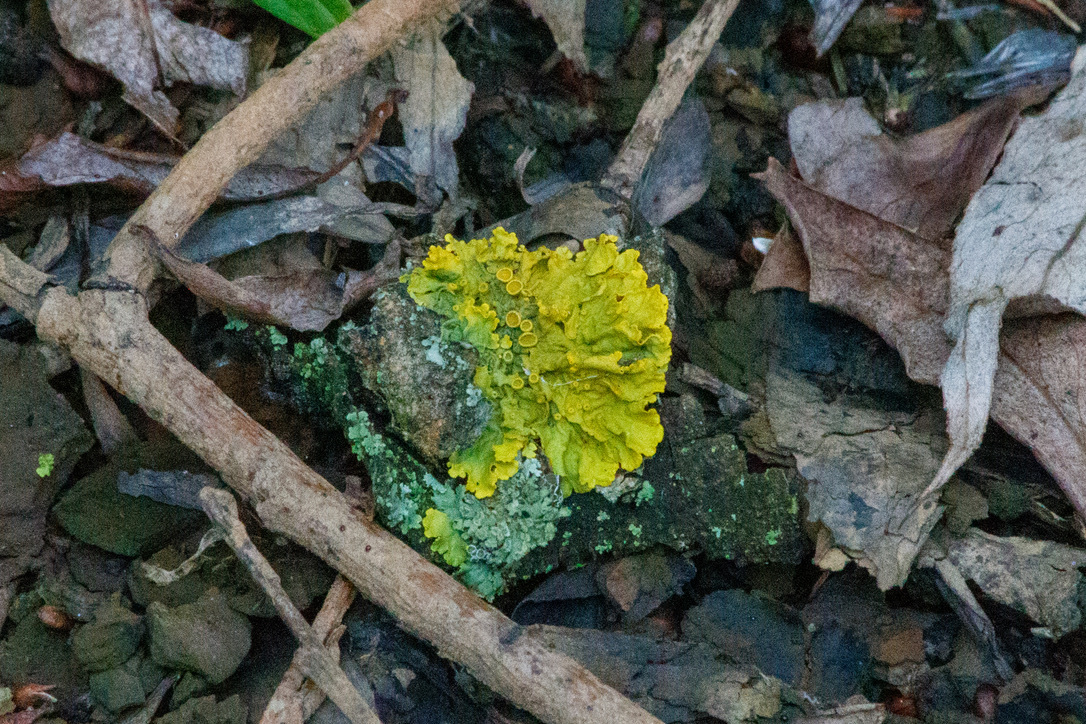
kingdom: Fungi
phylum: Ascomycota
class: Lecanoromycetes
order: Teloschistales
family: Teloschistaceae
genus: Xanthoria
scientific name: Xanthoria parietina
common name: Common orange lichen
